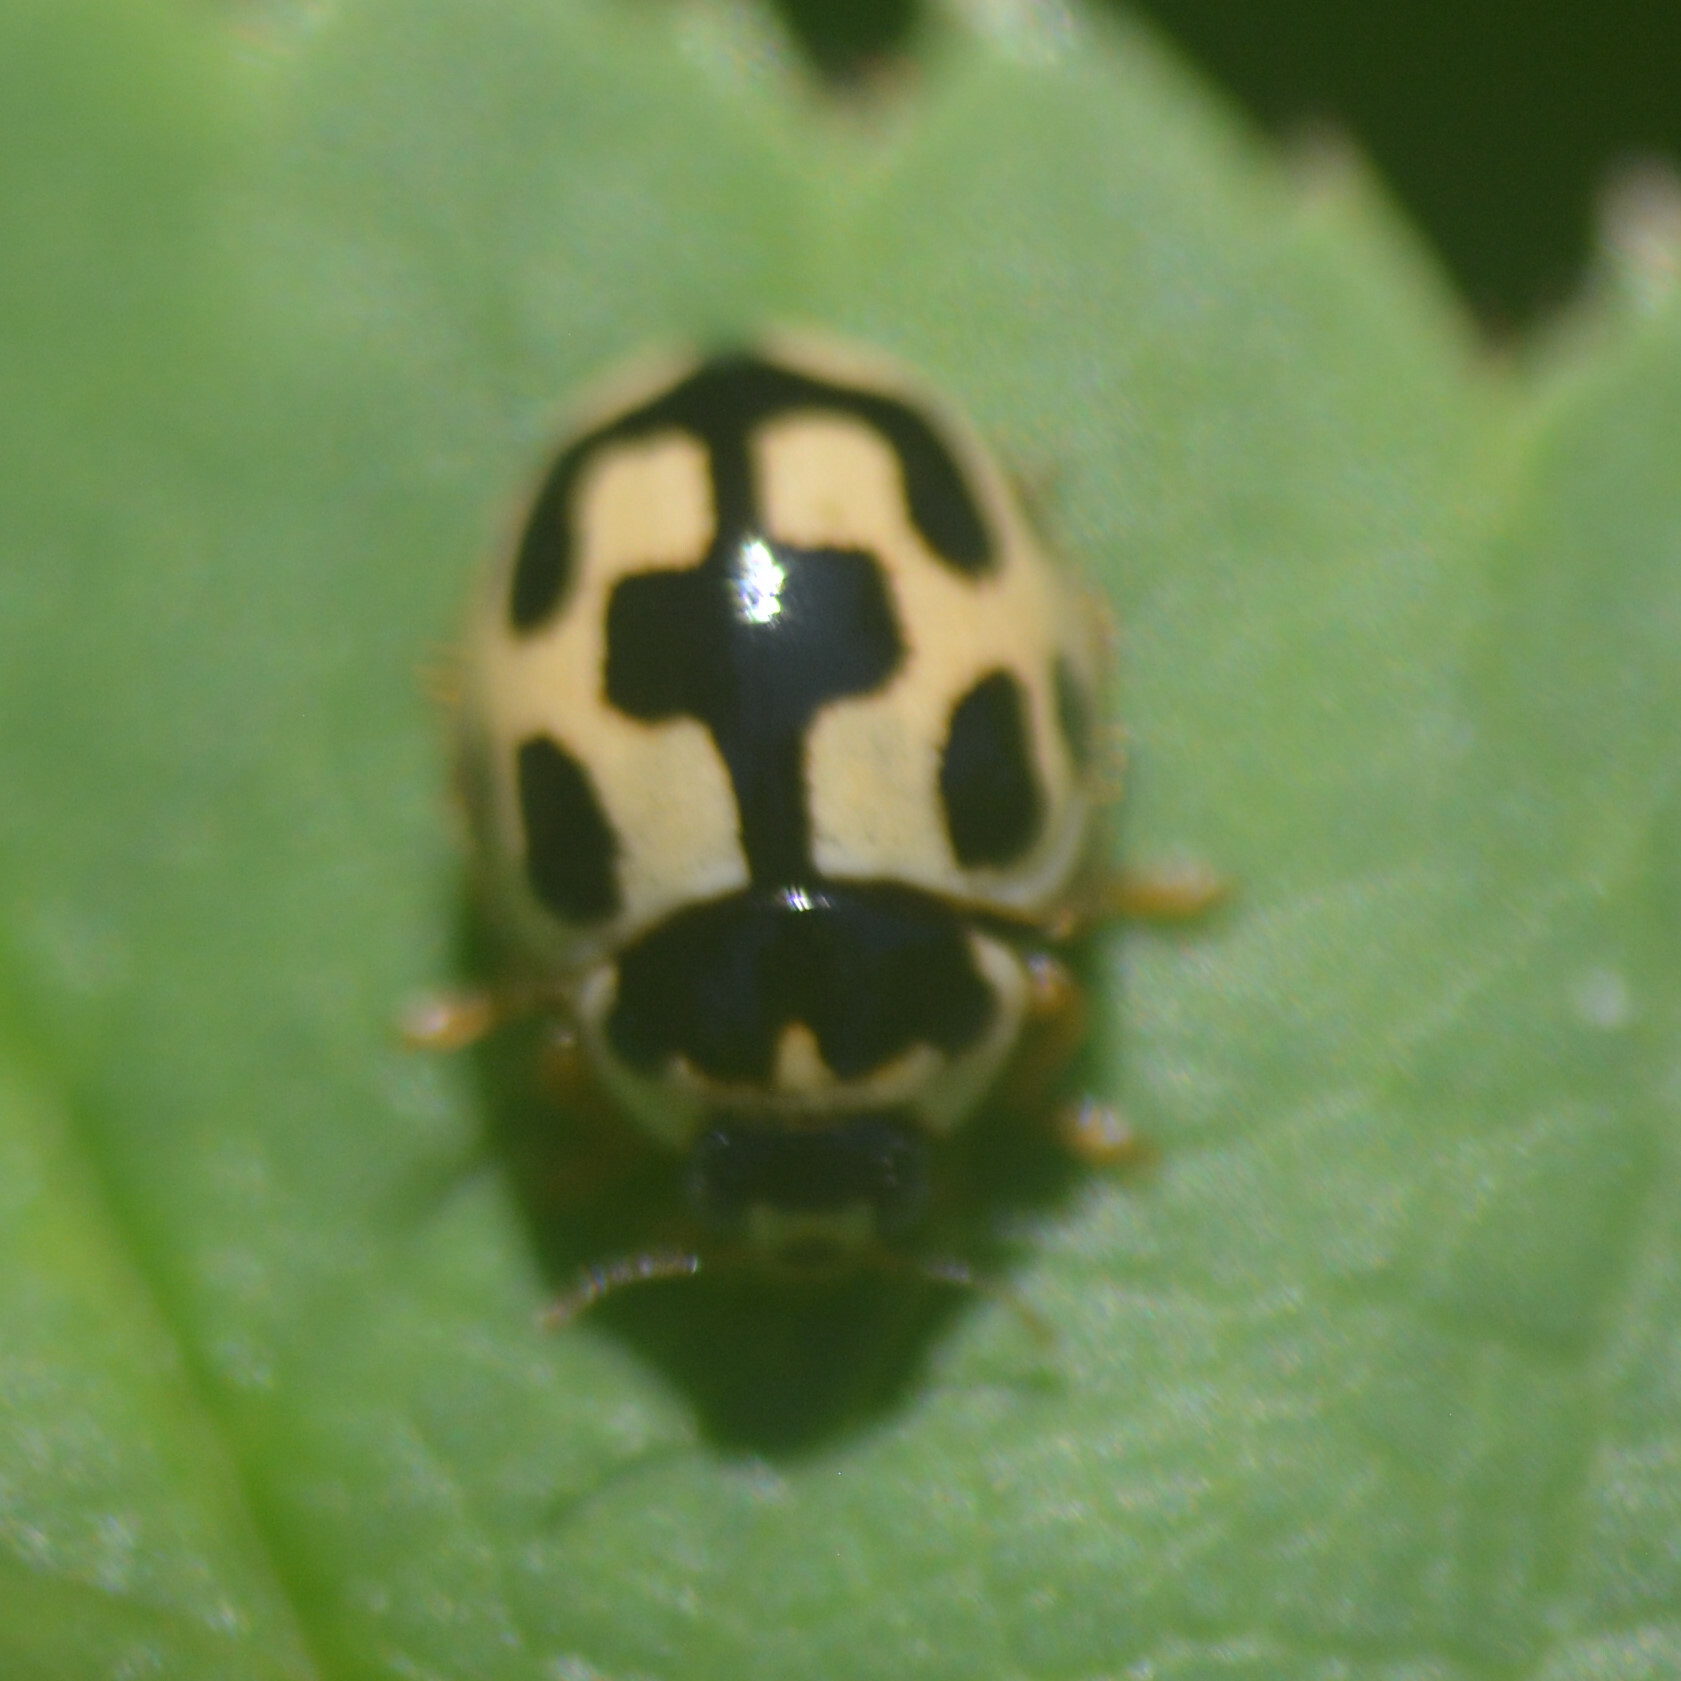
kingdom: Animalia
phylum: Arthropoda
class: Insecta
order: Coleoptera
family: Coccinellidae
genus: Propylaea
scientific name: Propylaea quatuordecimpunctata
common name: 14-spotted ladybird beetle
